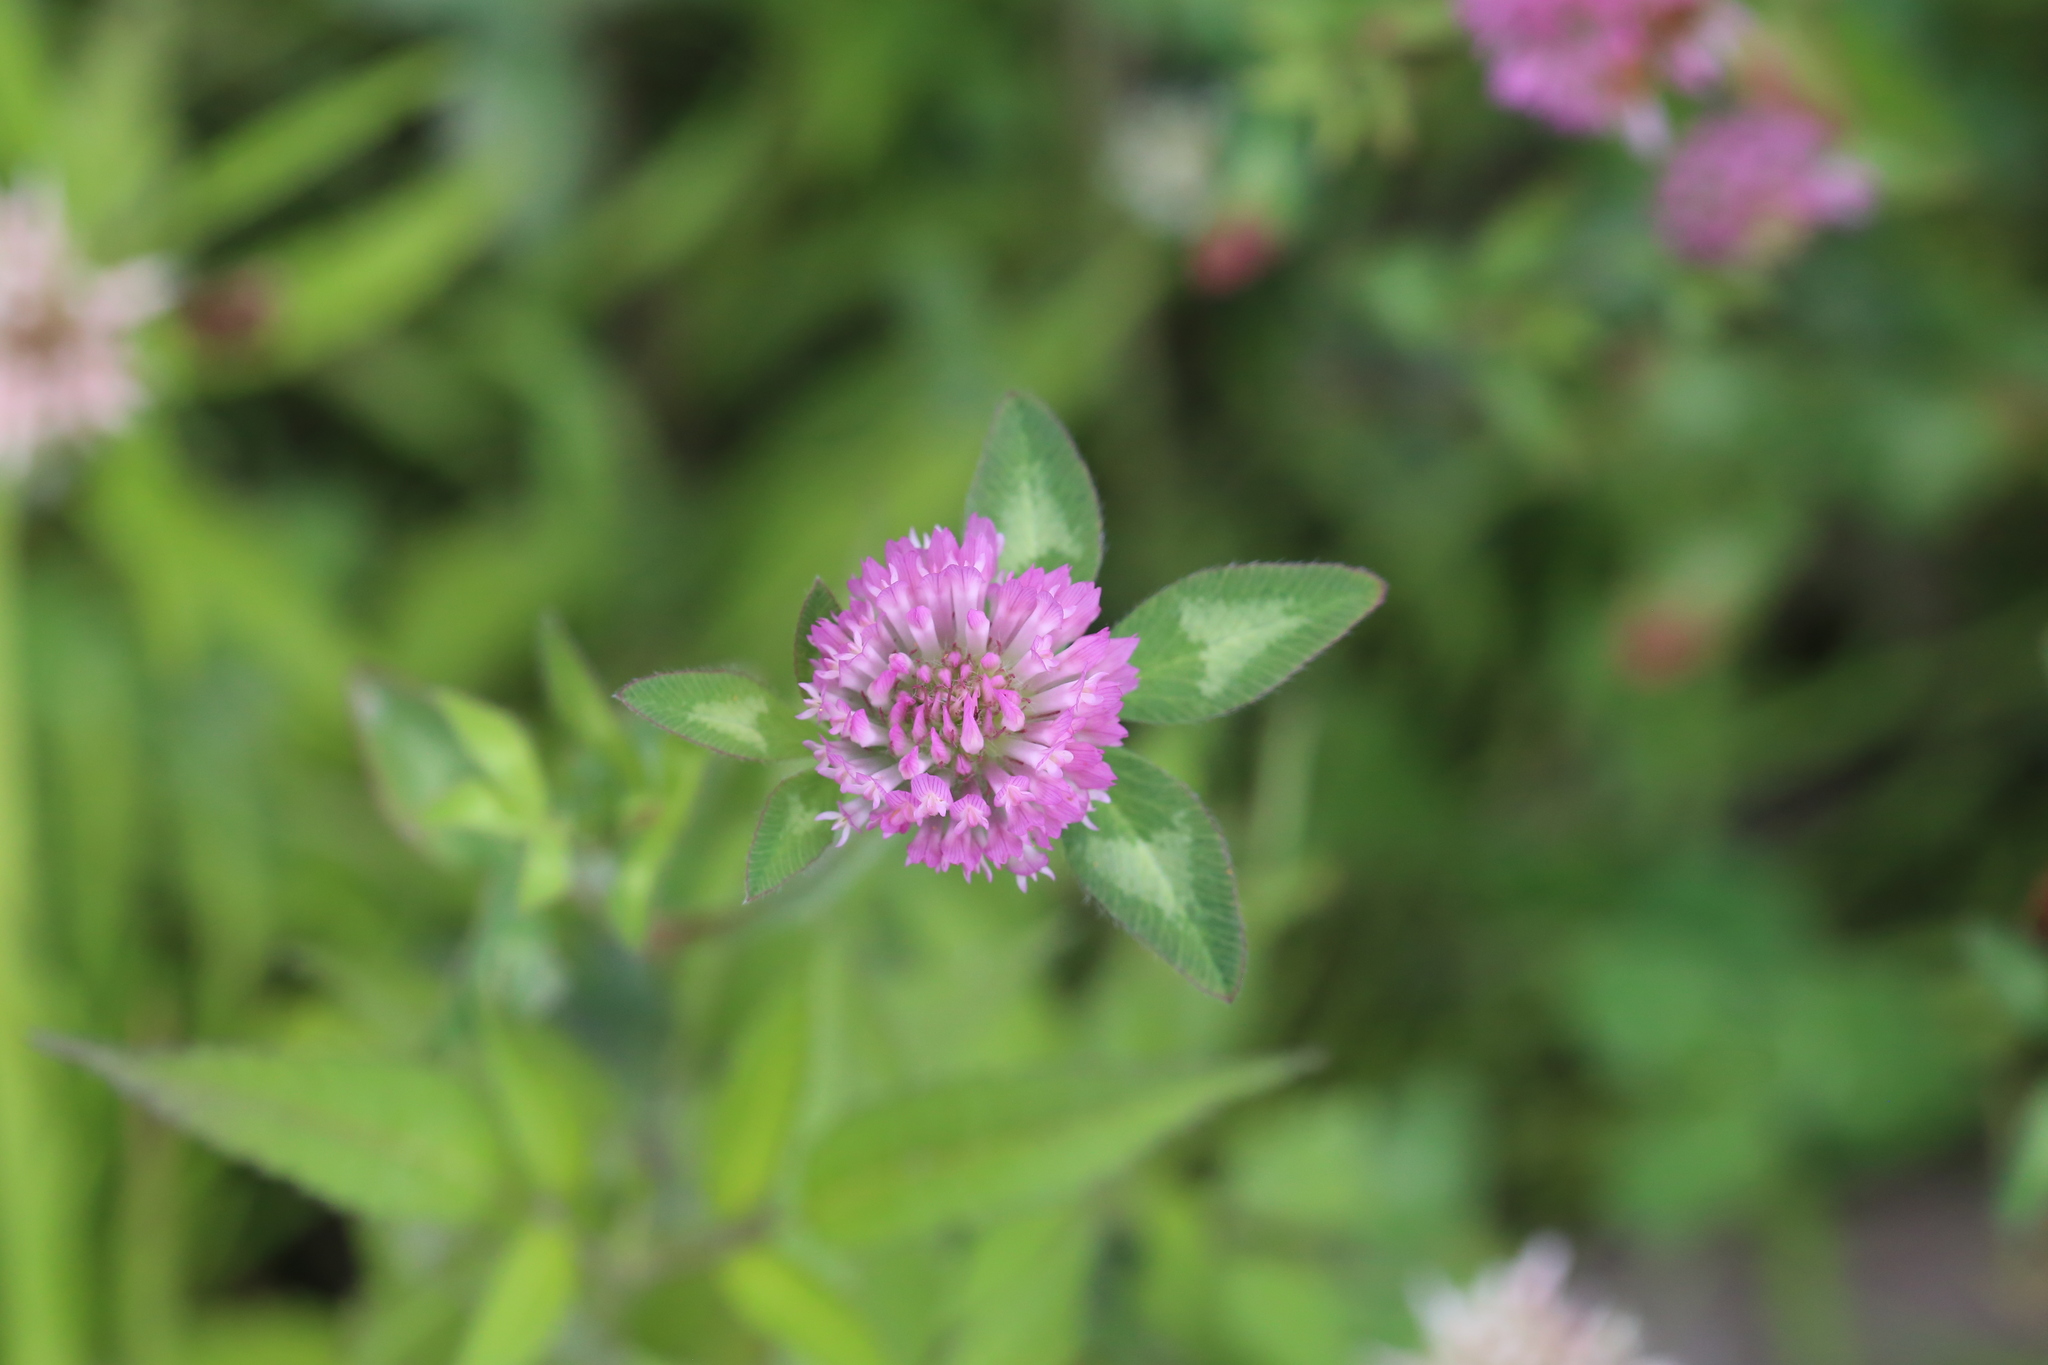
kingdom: Plantae
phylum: Tracheophyta
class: Magnoliopsida
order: Fabales
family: Fabaceae
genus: Trifolium
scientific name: Trifolium pratense
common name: Red clover
